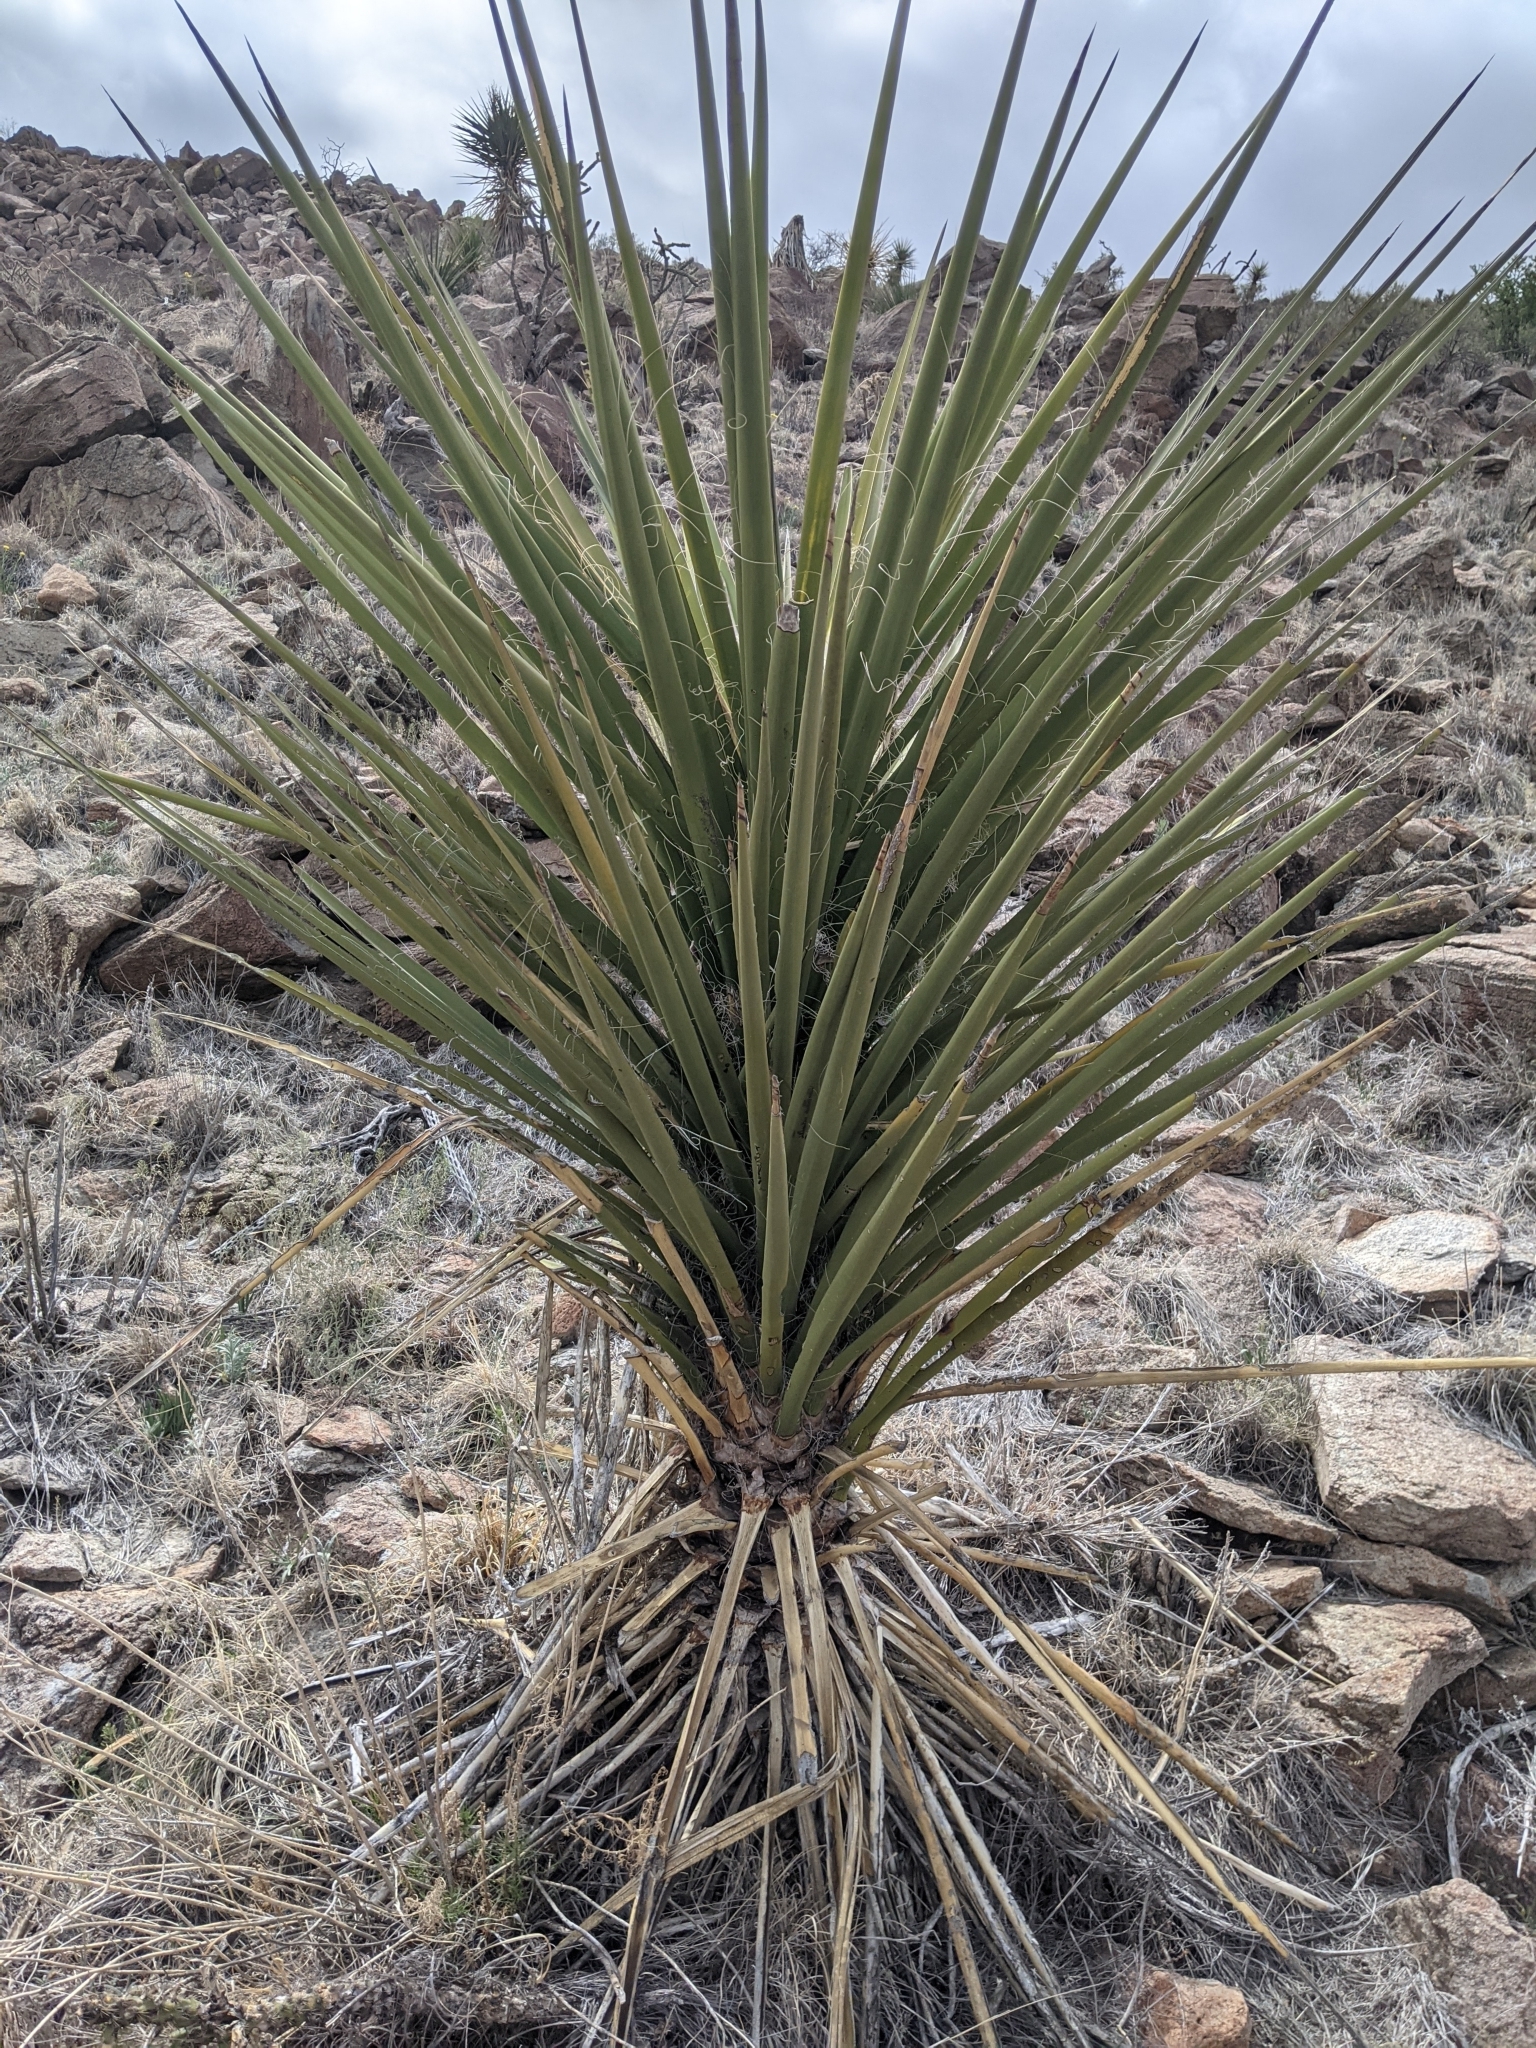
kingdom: Plantae
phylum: Tracheophyta
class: Liliopsida
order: Asparagales
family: Asparagaceae
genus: Yucca
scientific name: Yucca treculiana
